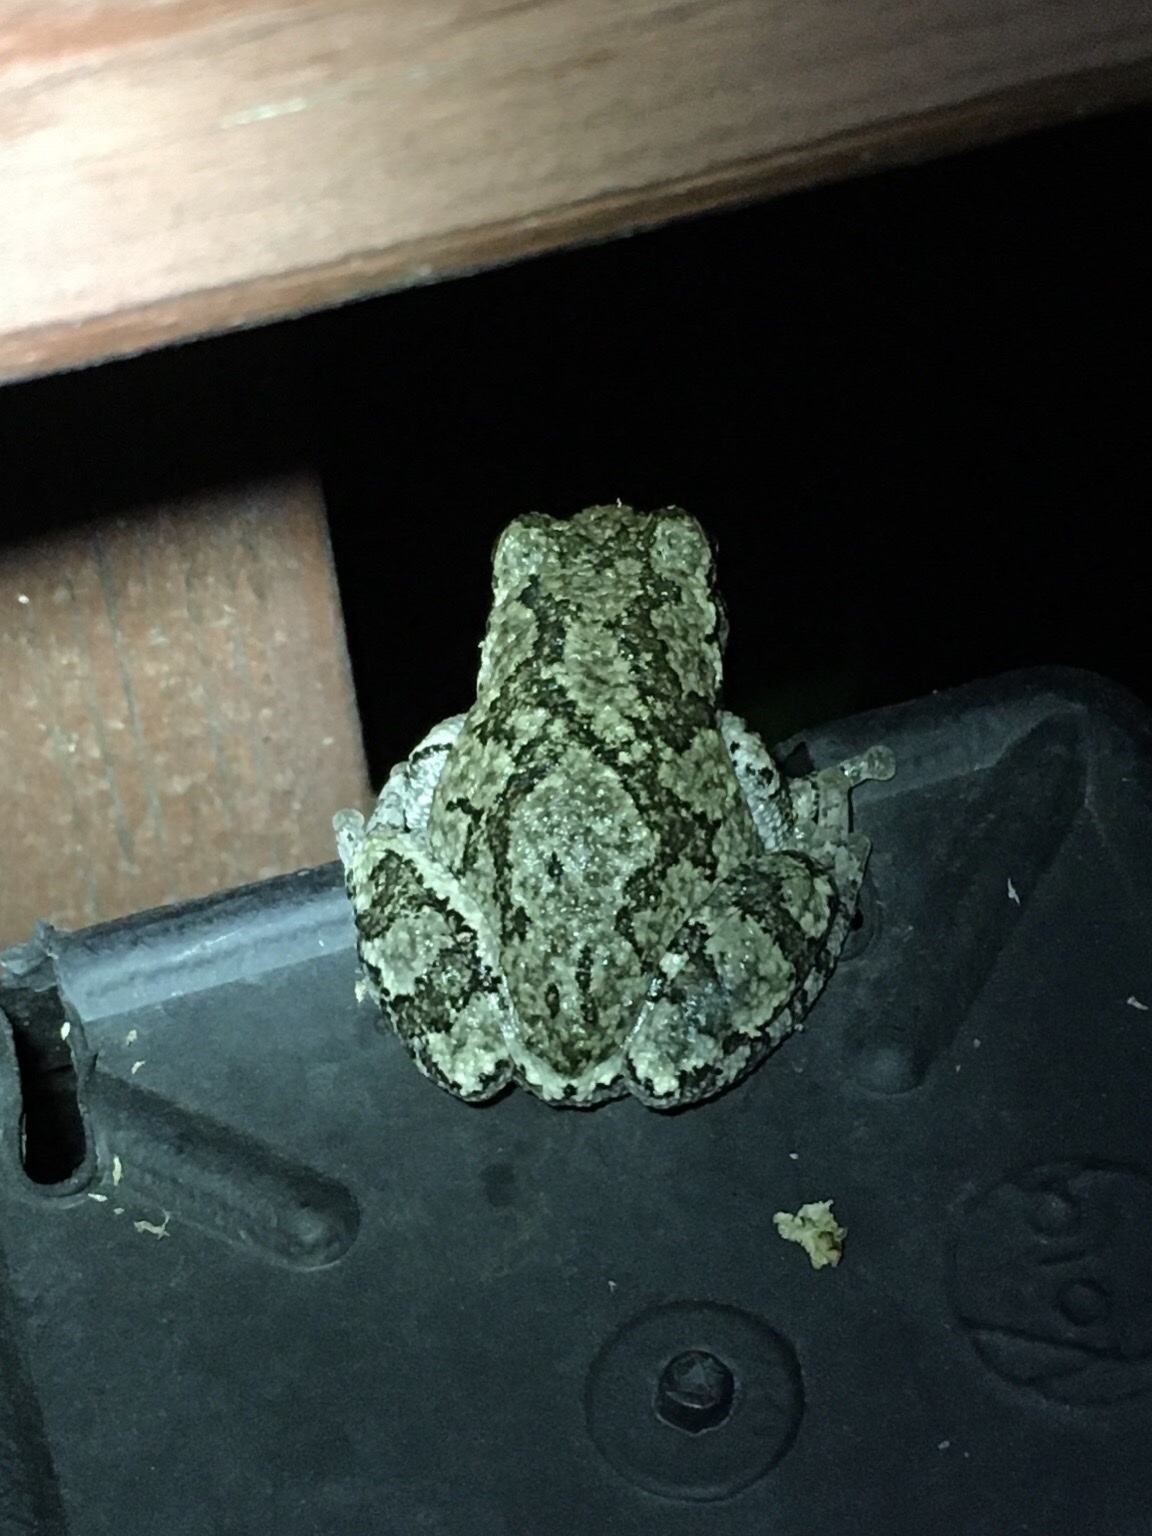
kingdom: Animalia
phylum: Chordata
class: Amphibia
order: Anura
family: Hylidae
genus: Dryophytes
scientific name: Dryophytes versicolor
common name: Gray treefrog
